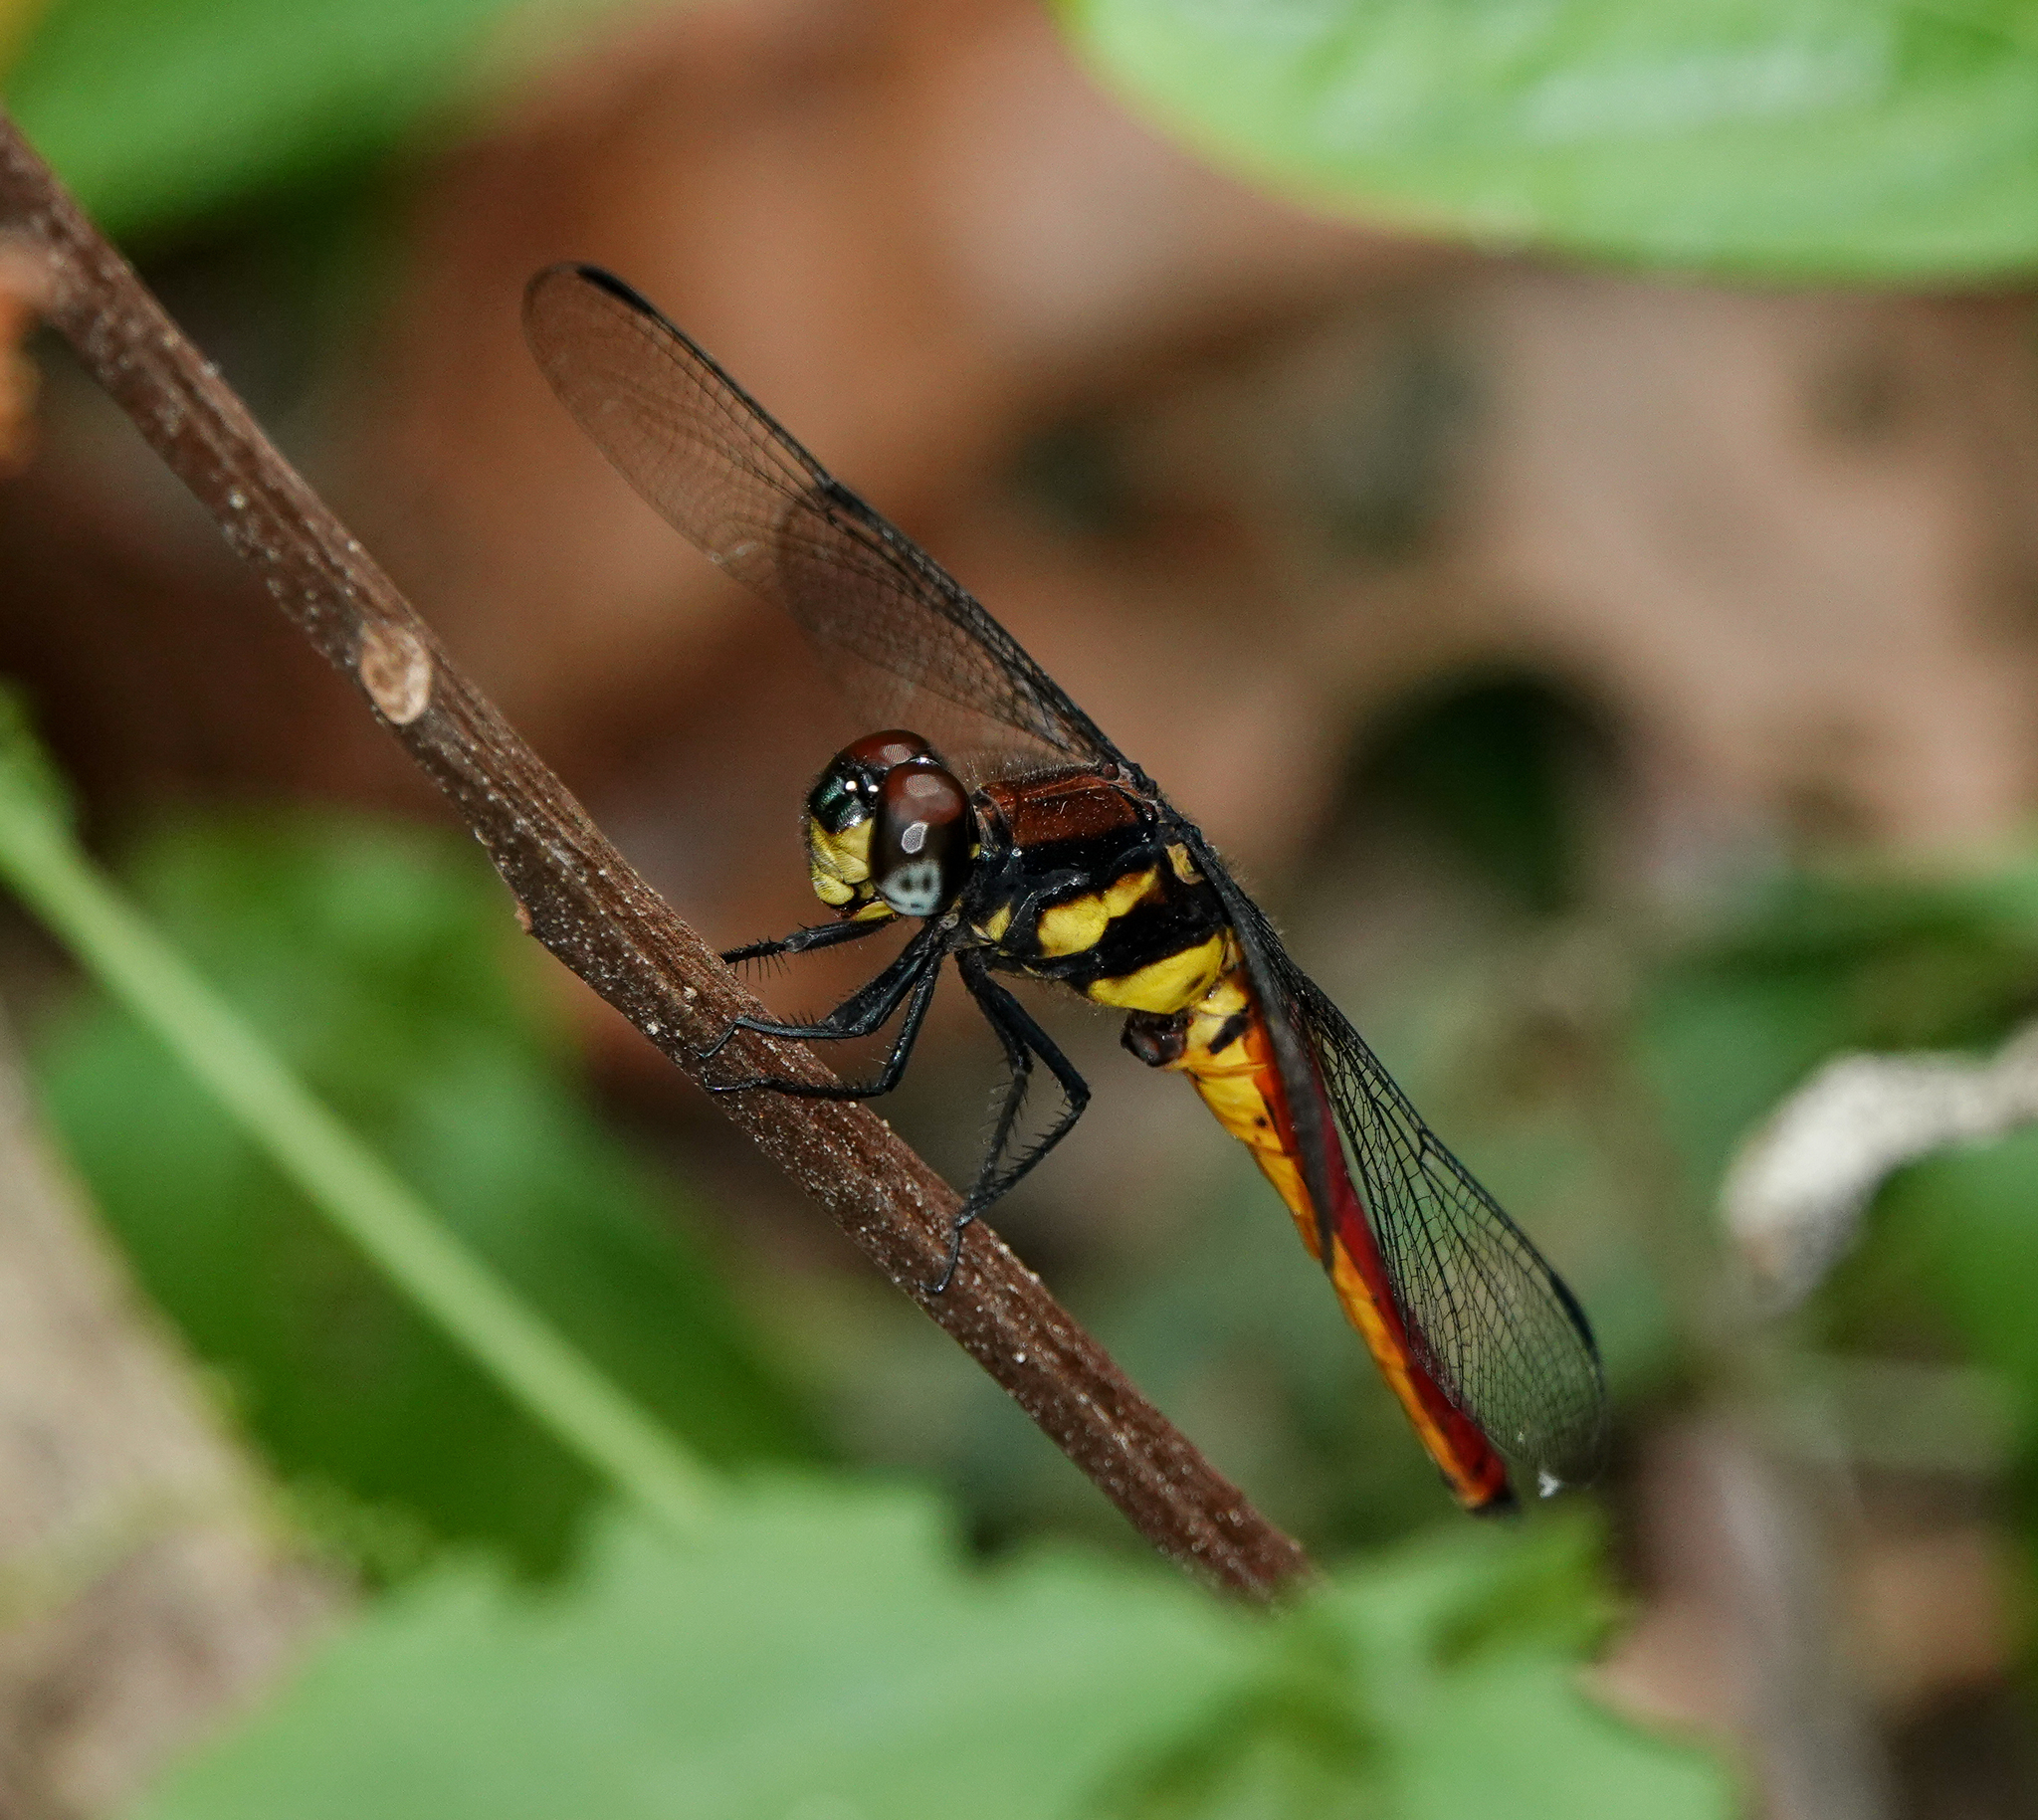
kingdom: Animalia
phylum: Arthropoda
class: Insecta
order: Odonata
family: Libellulidae
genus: Lyriothemis
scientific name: Lyriothemis bivittata
